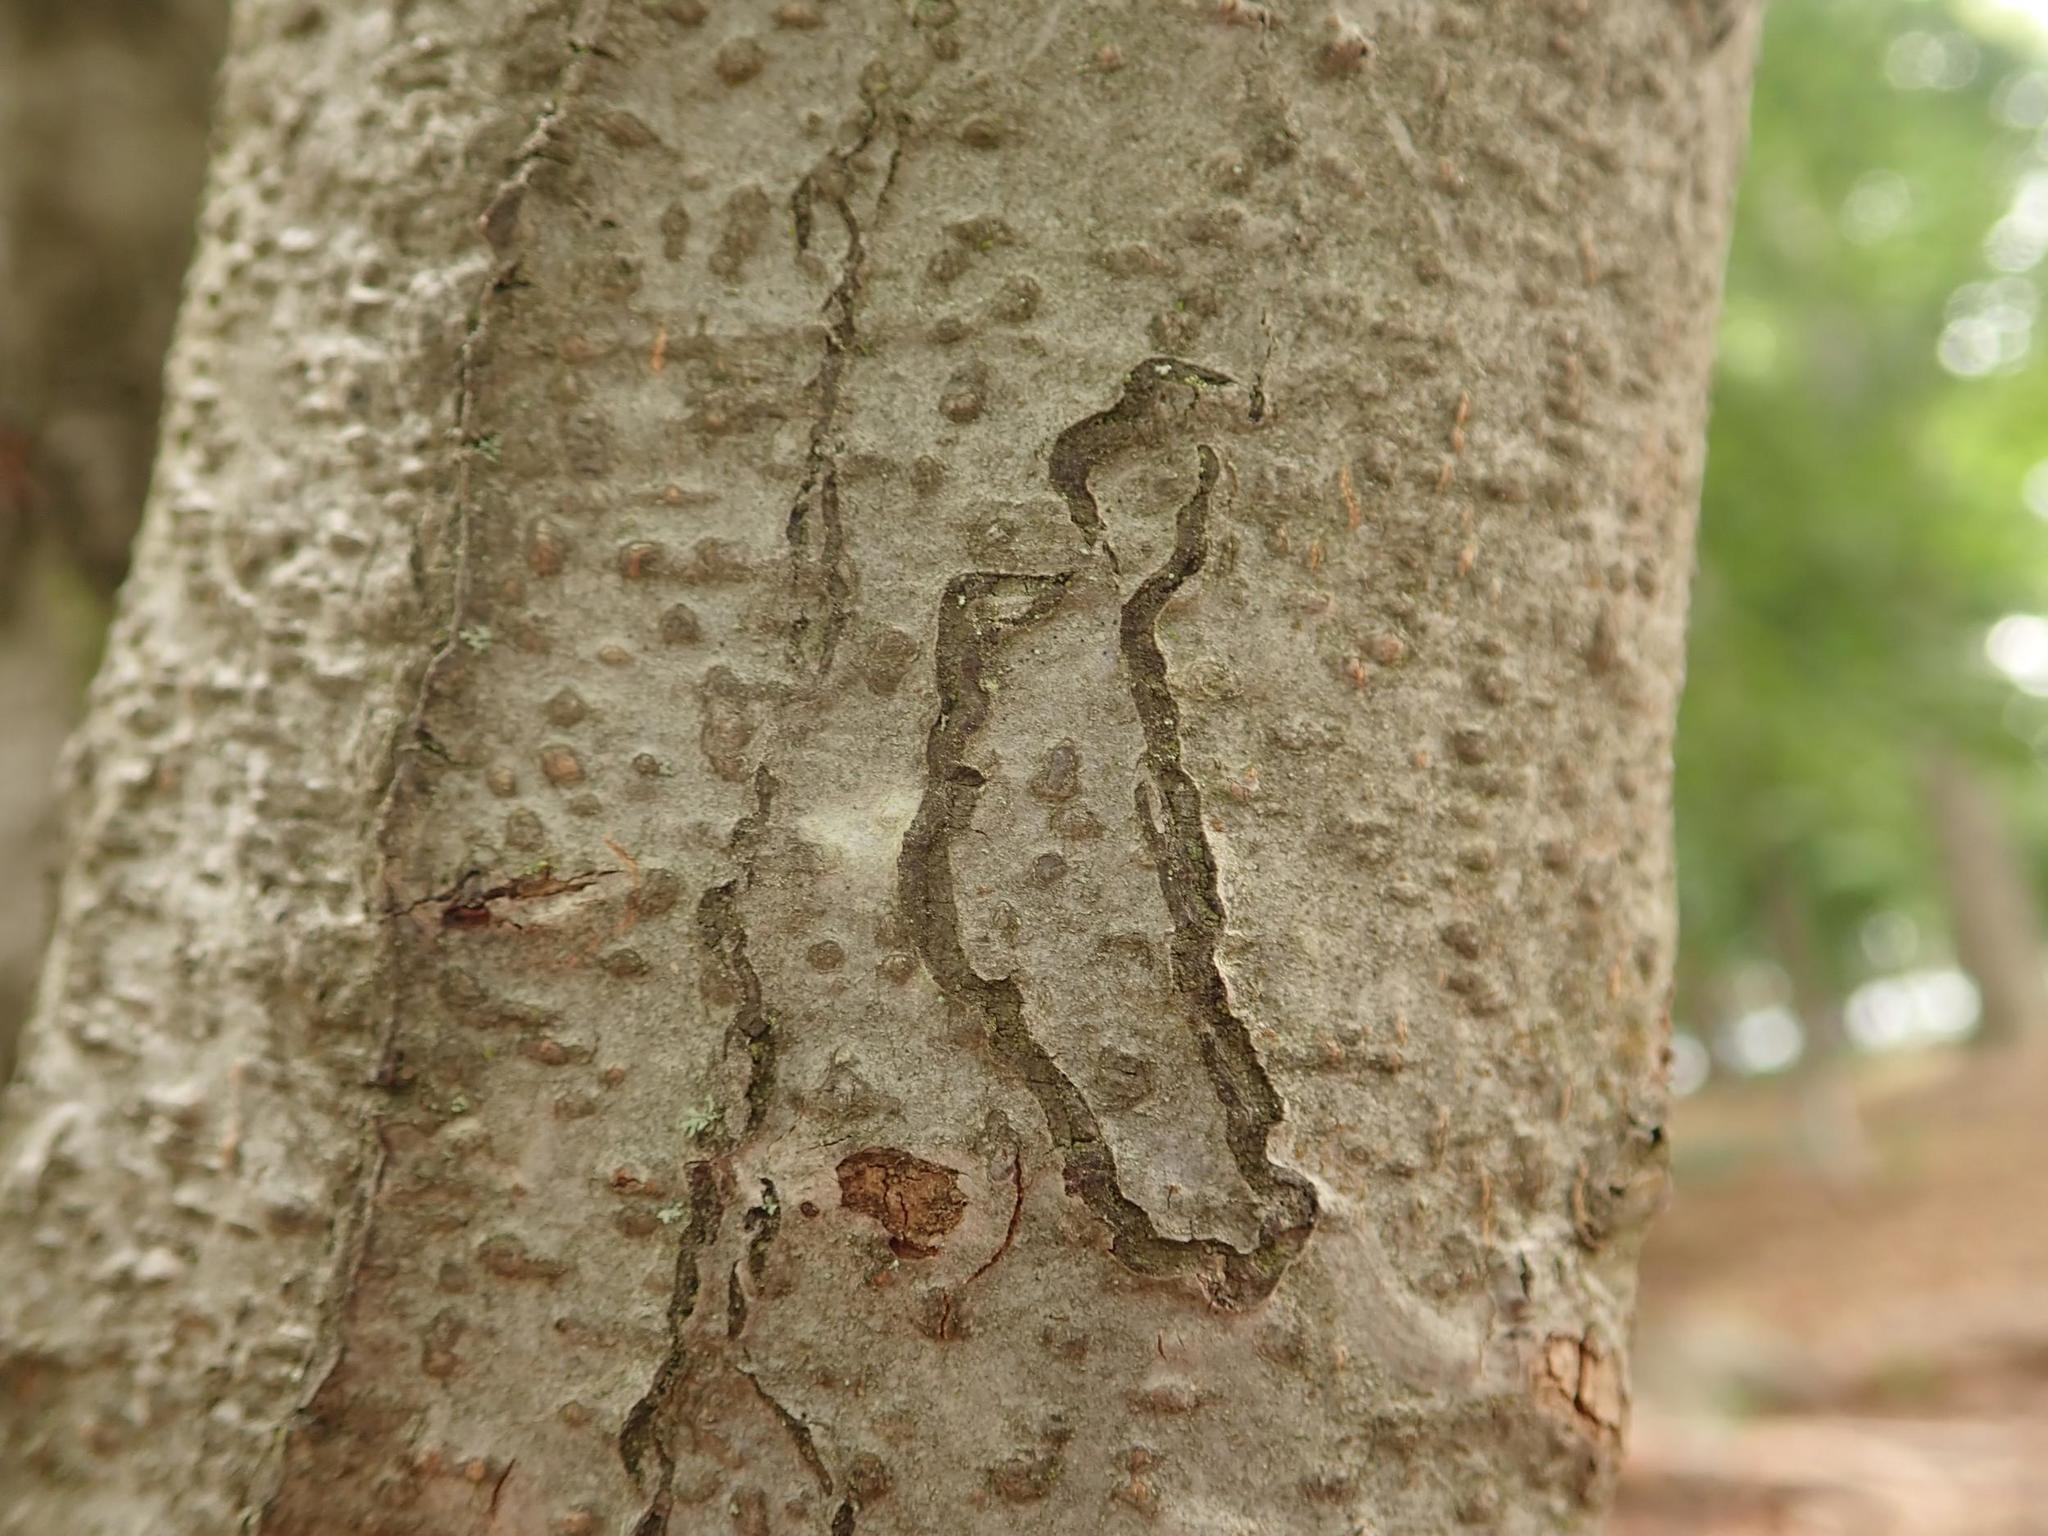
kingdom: Animalia
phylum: Arthropoda
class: Insecta
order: Lepidoptera
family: Nepticulidae
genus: Zimmermannia
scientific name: Zimmermannia liebwerdella
